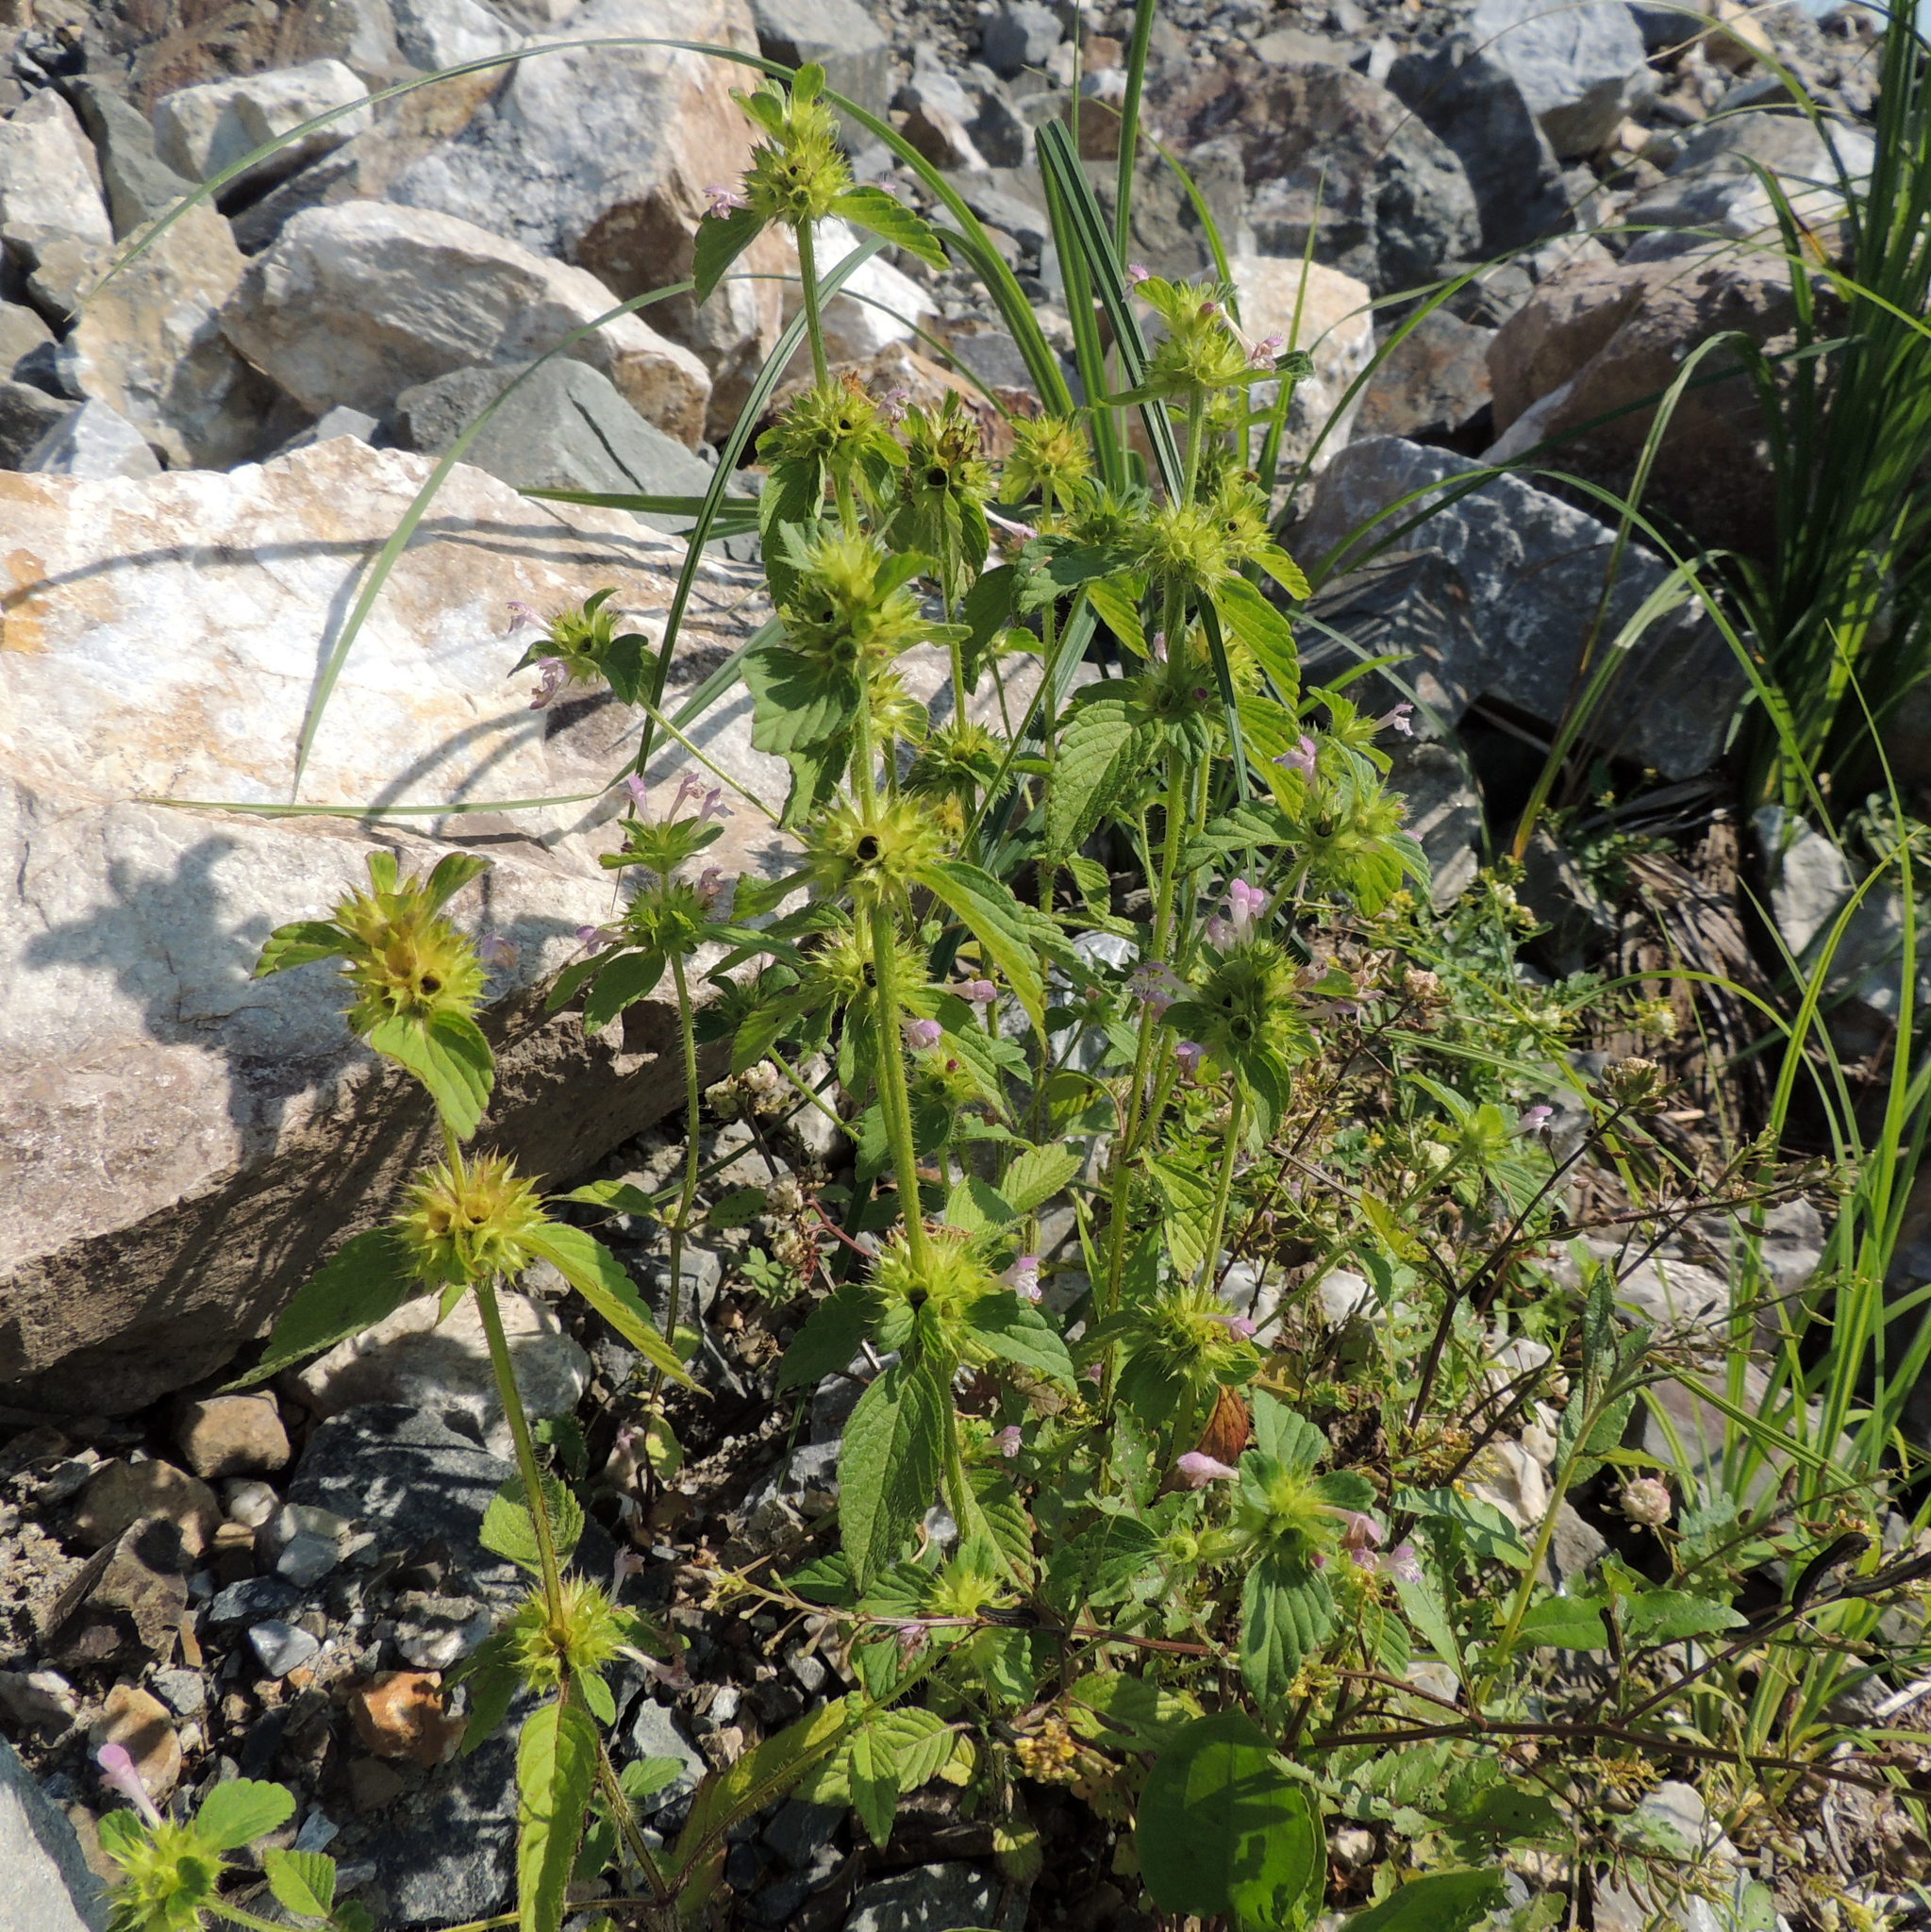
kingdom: Plantae
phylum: Tracheophyta
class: Magnoliopsida
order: Lamiales
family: Lamiaceae
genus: Galeopsis
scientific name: Galeopsis bifida
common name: Bifid hemp-nettle
